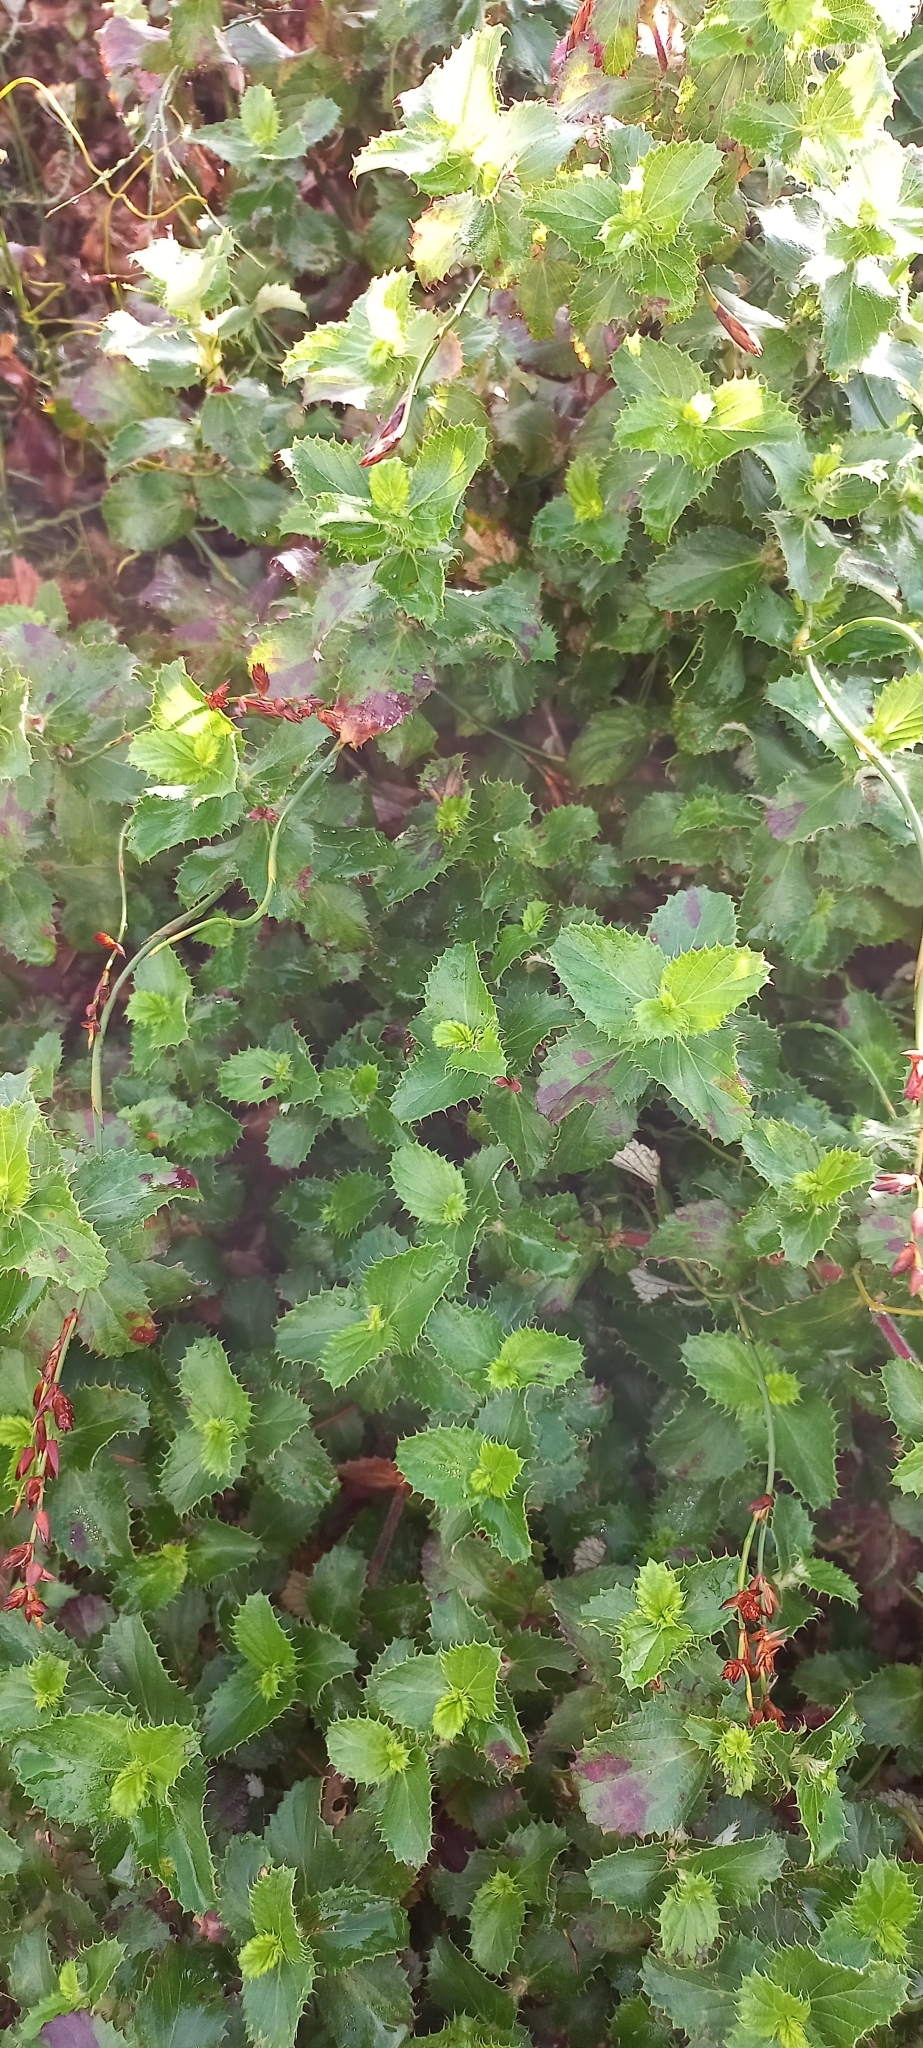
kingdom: Plantae
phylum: Tracheophyta
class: Magnoliopsida
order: Rosales
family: Rosaceae
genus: Cliffortia
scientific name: Cliffortia hirsuta
